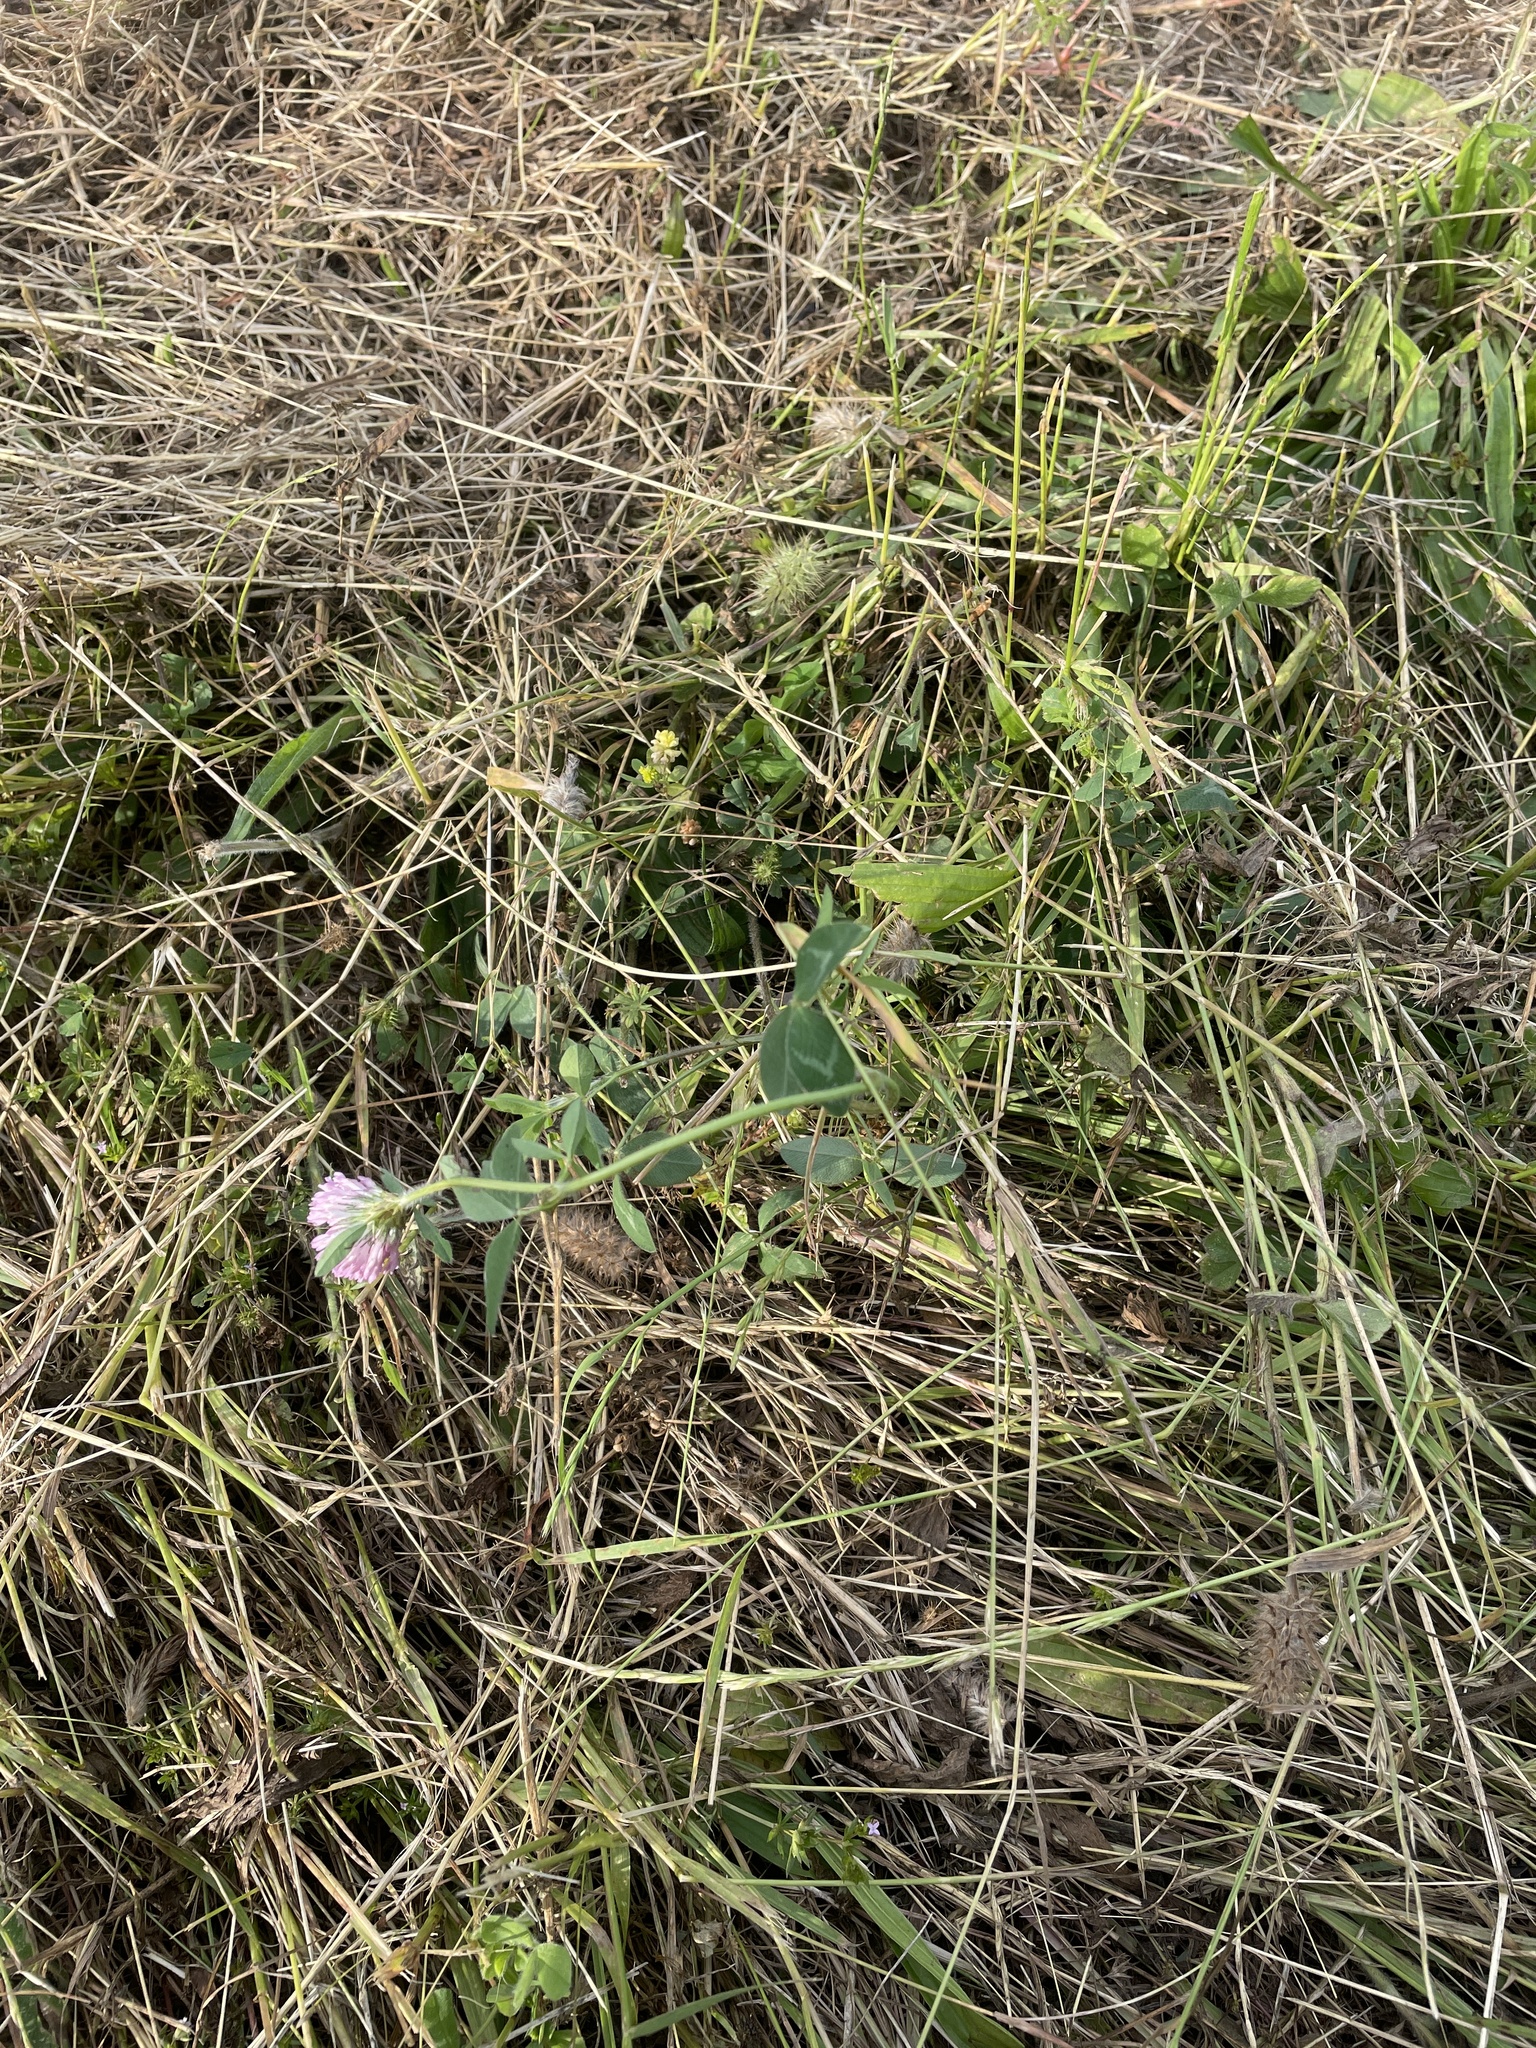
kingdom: Plantae
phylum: Tracheophyta
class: Magnoliopsida
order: Fabales
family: Fabaceae
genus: Trifolium
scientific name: Trifolium pratense
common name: Red clover
